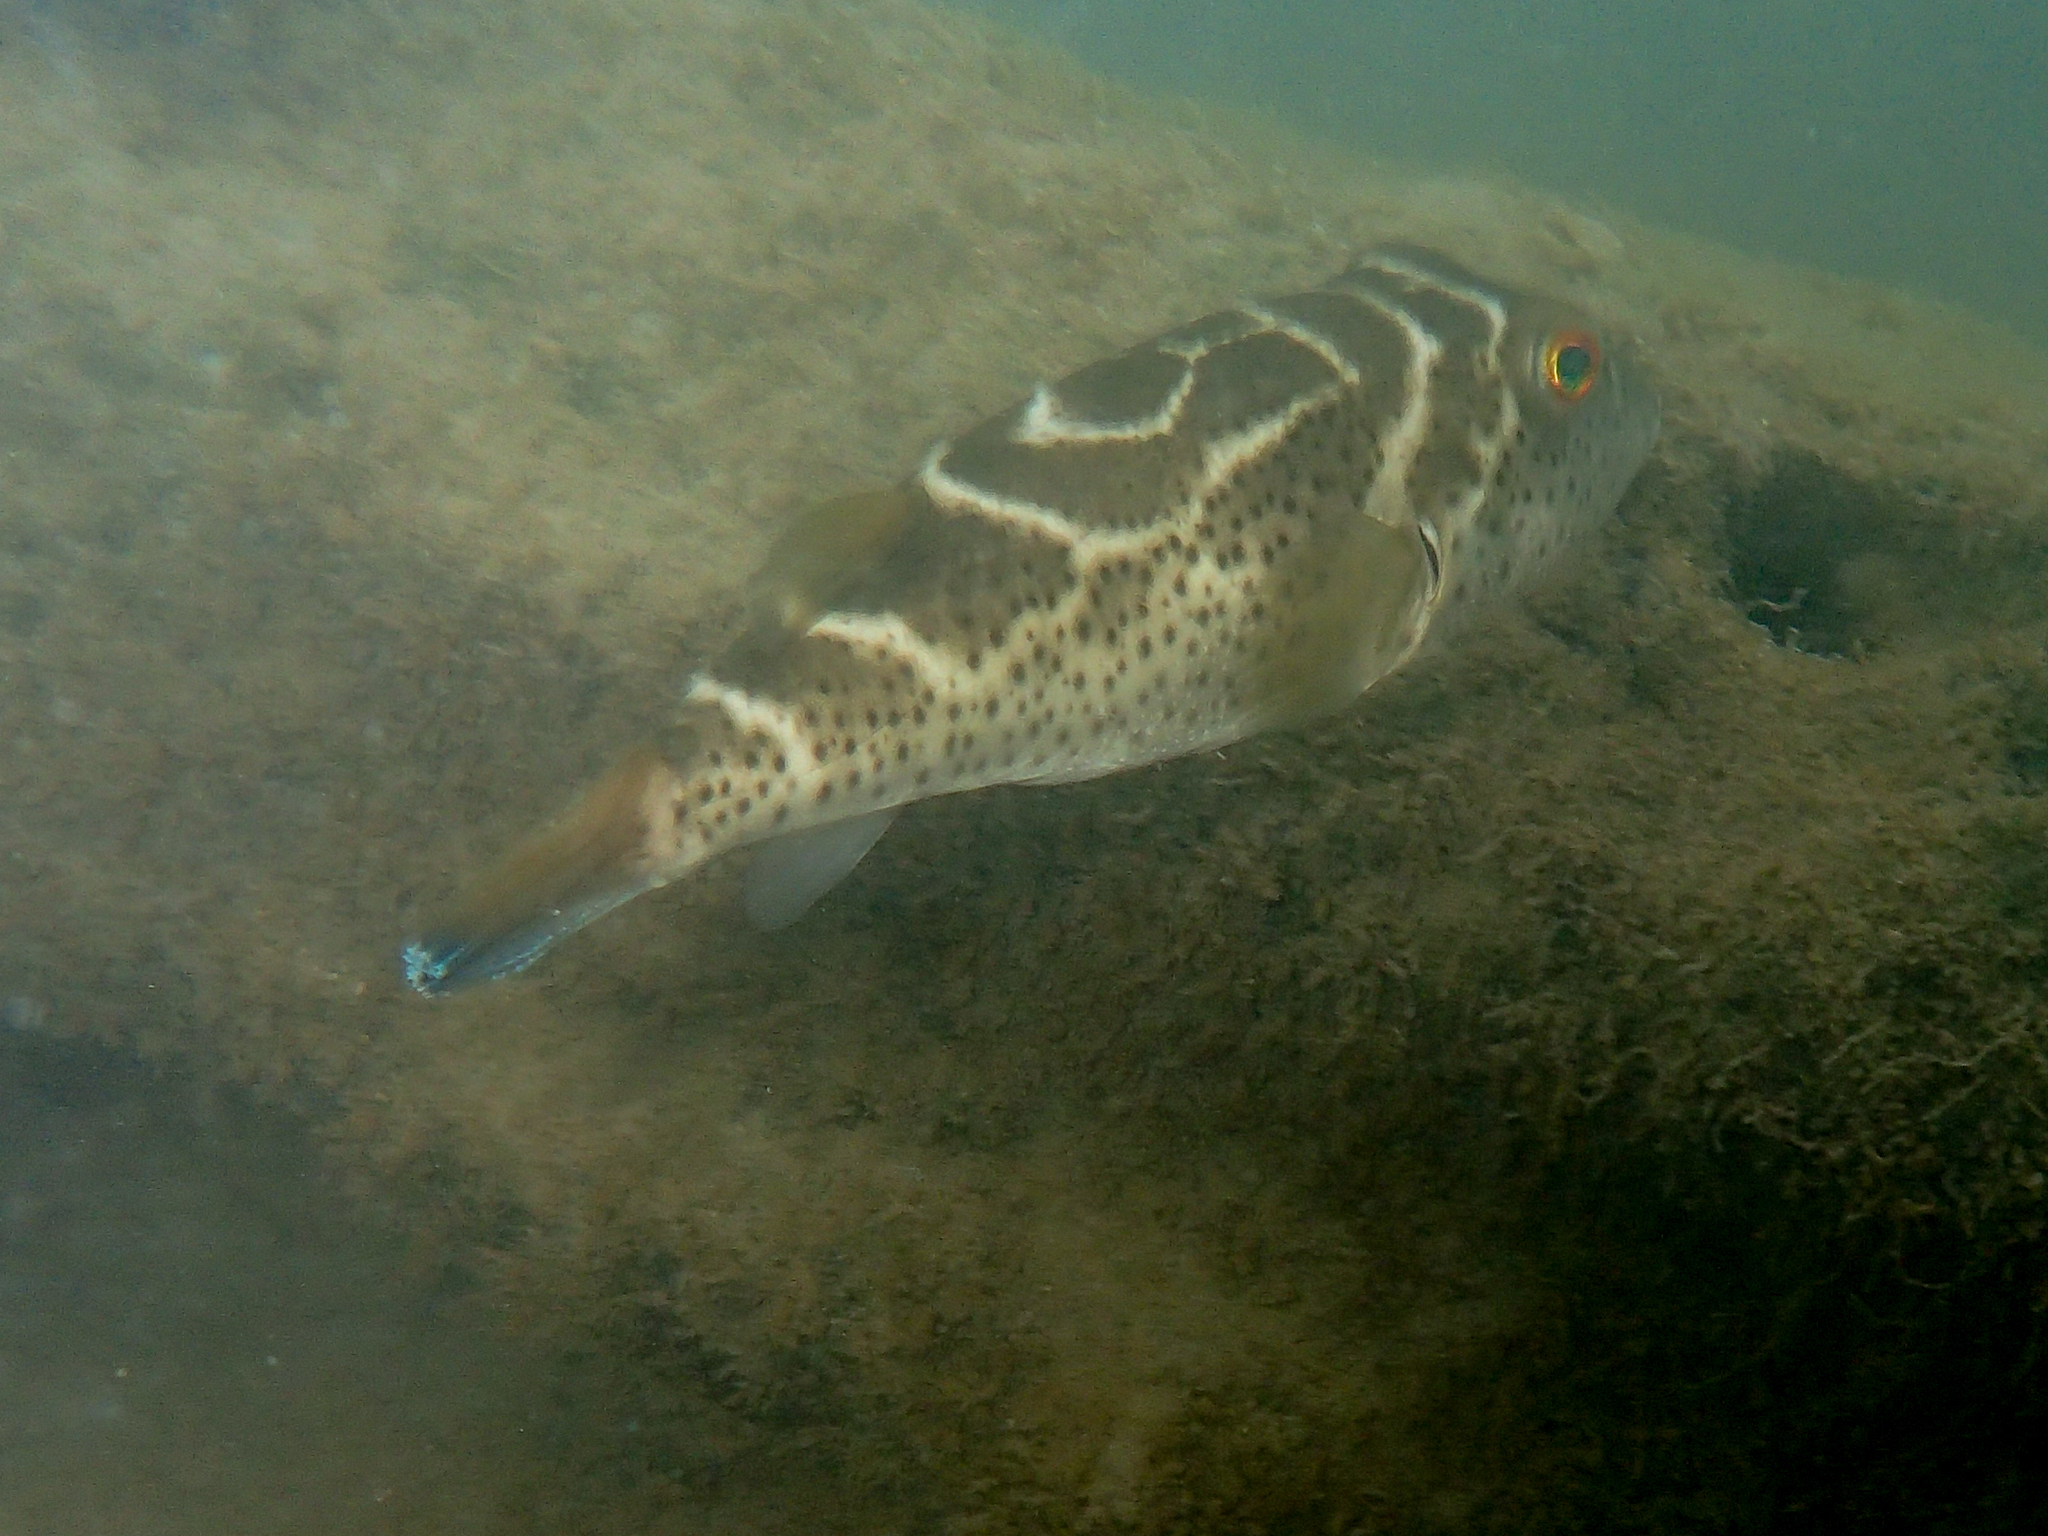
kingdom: Animalia
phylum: Chordata
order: Tetraodontiformes
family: Tetraodontidae
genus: Sphoeroides
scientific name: Sphoeroides annulatus
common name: Bullseye puffer
